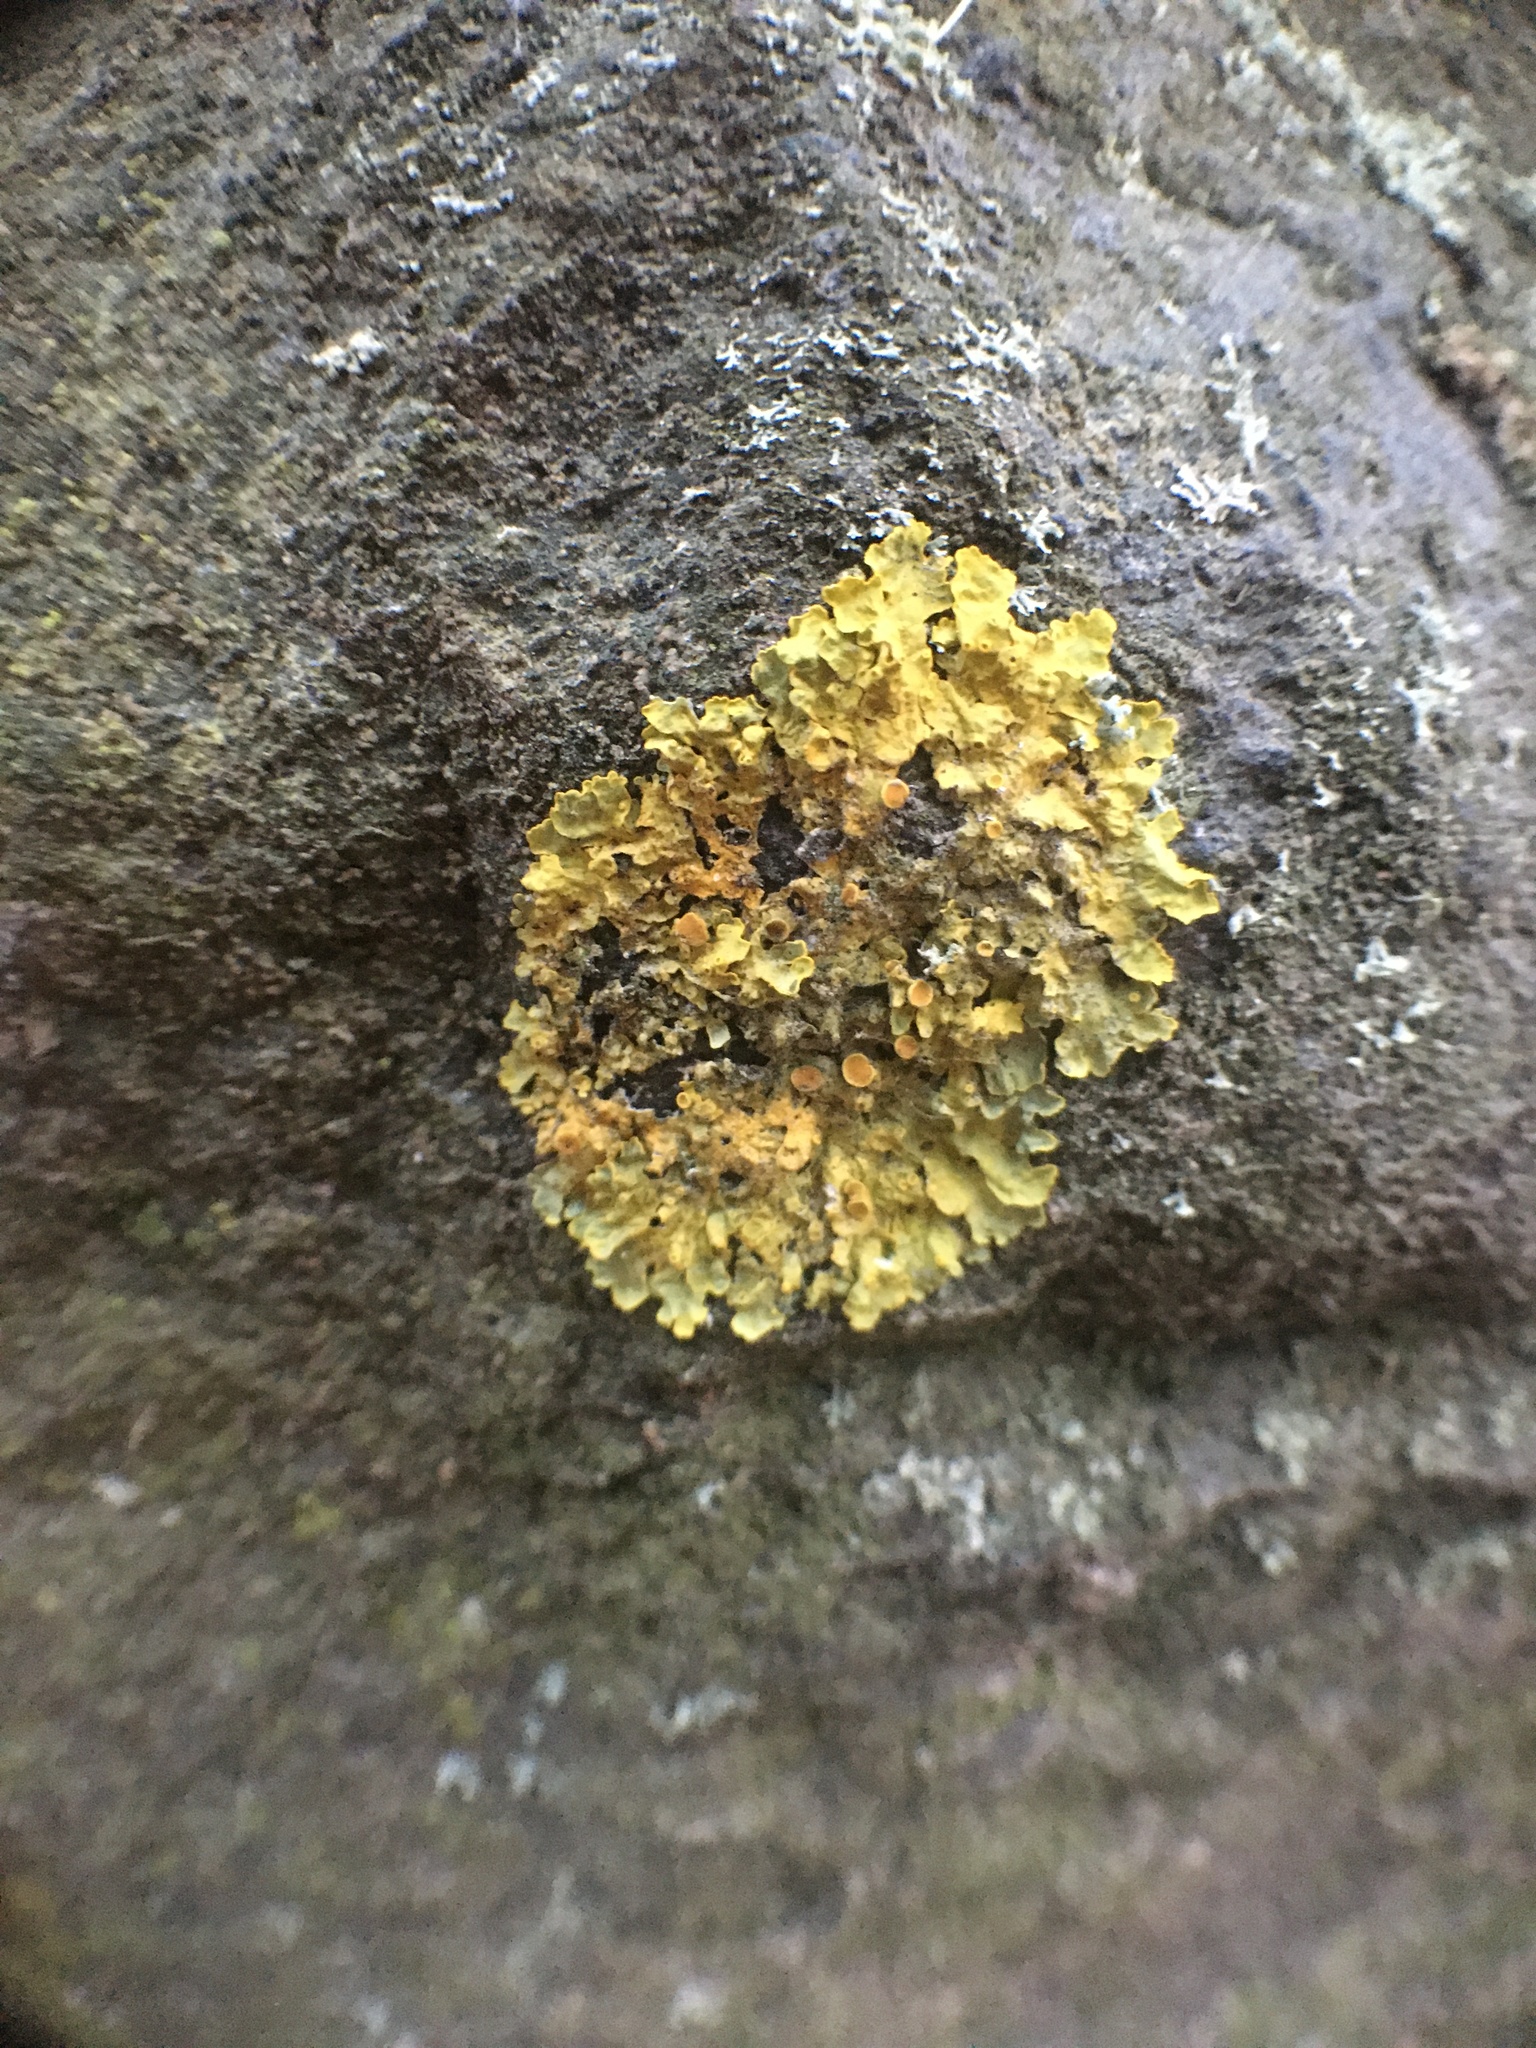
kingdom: Fungi
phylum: Ascomycota
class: Lecanoromycetes
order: Teloschistales
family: Teloschistaceae
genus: Xanthoria
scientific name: Xanthoria parietina
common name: Common orange lichen
